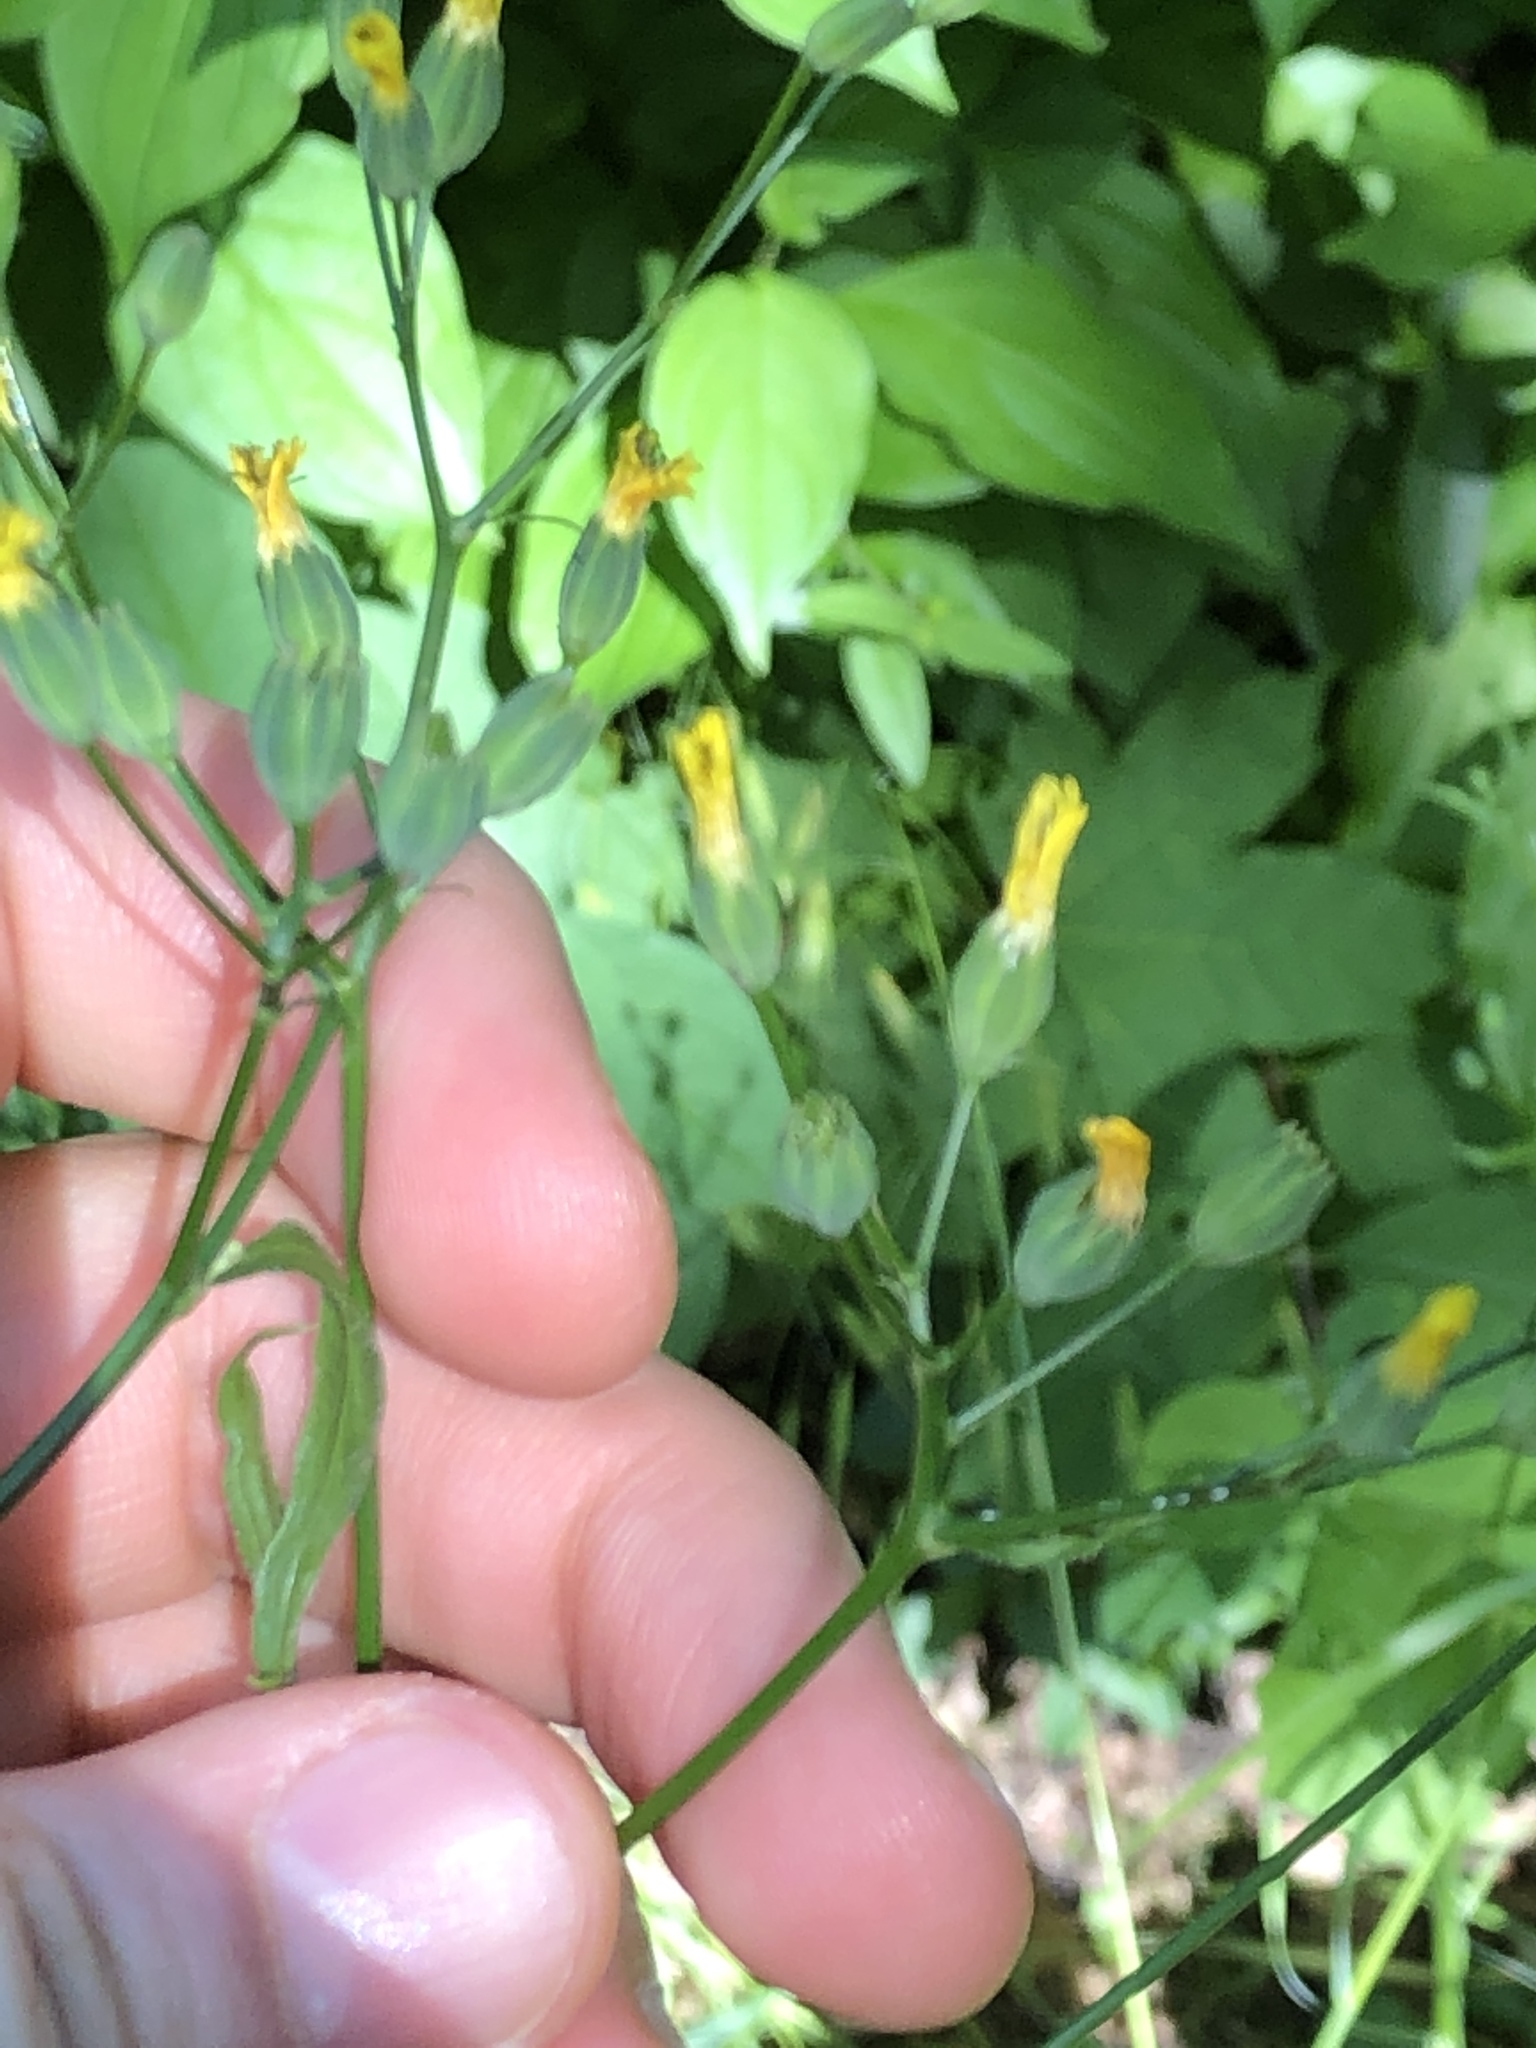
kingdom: Plantae
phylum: Tracheophyta
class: Magnoliopsida
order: Asterales
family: Asteraceae
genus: Lapsana
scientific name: Lapsana communis
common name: Nipplewort
